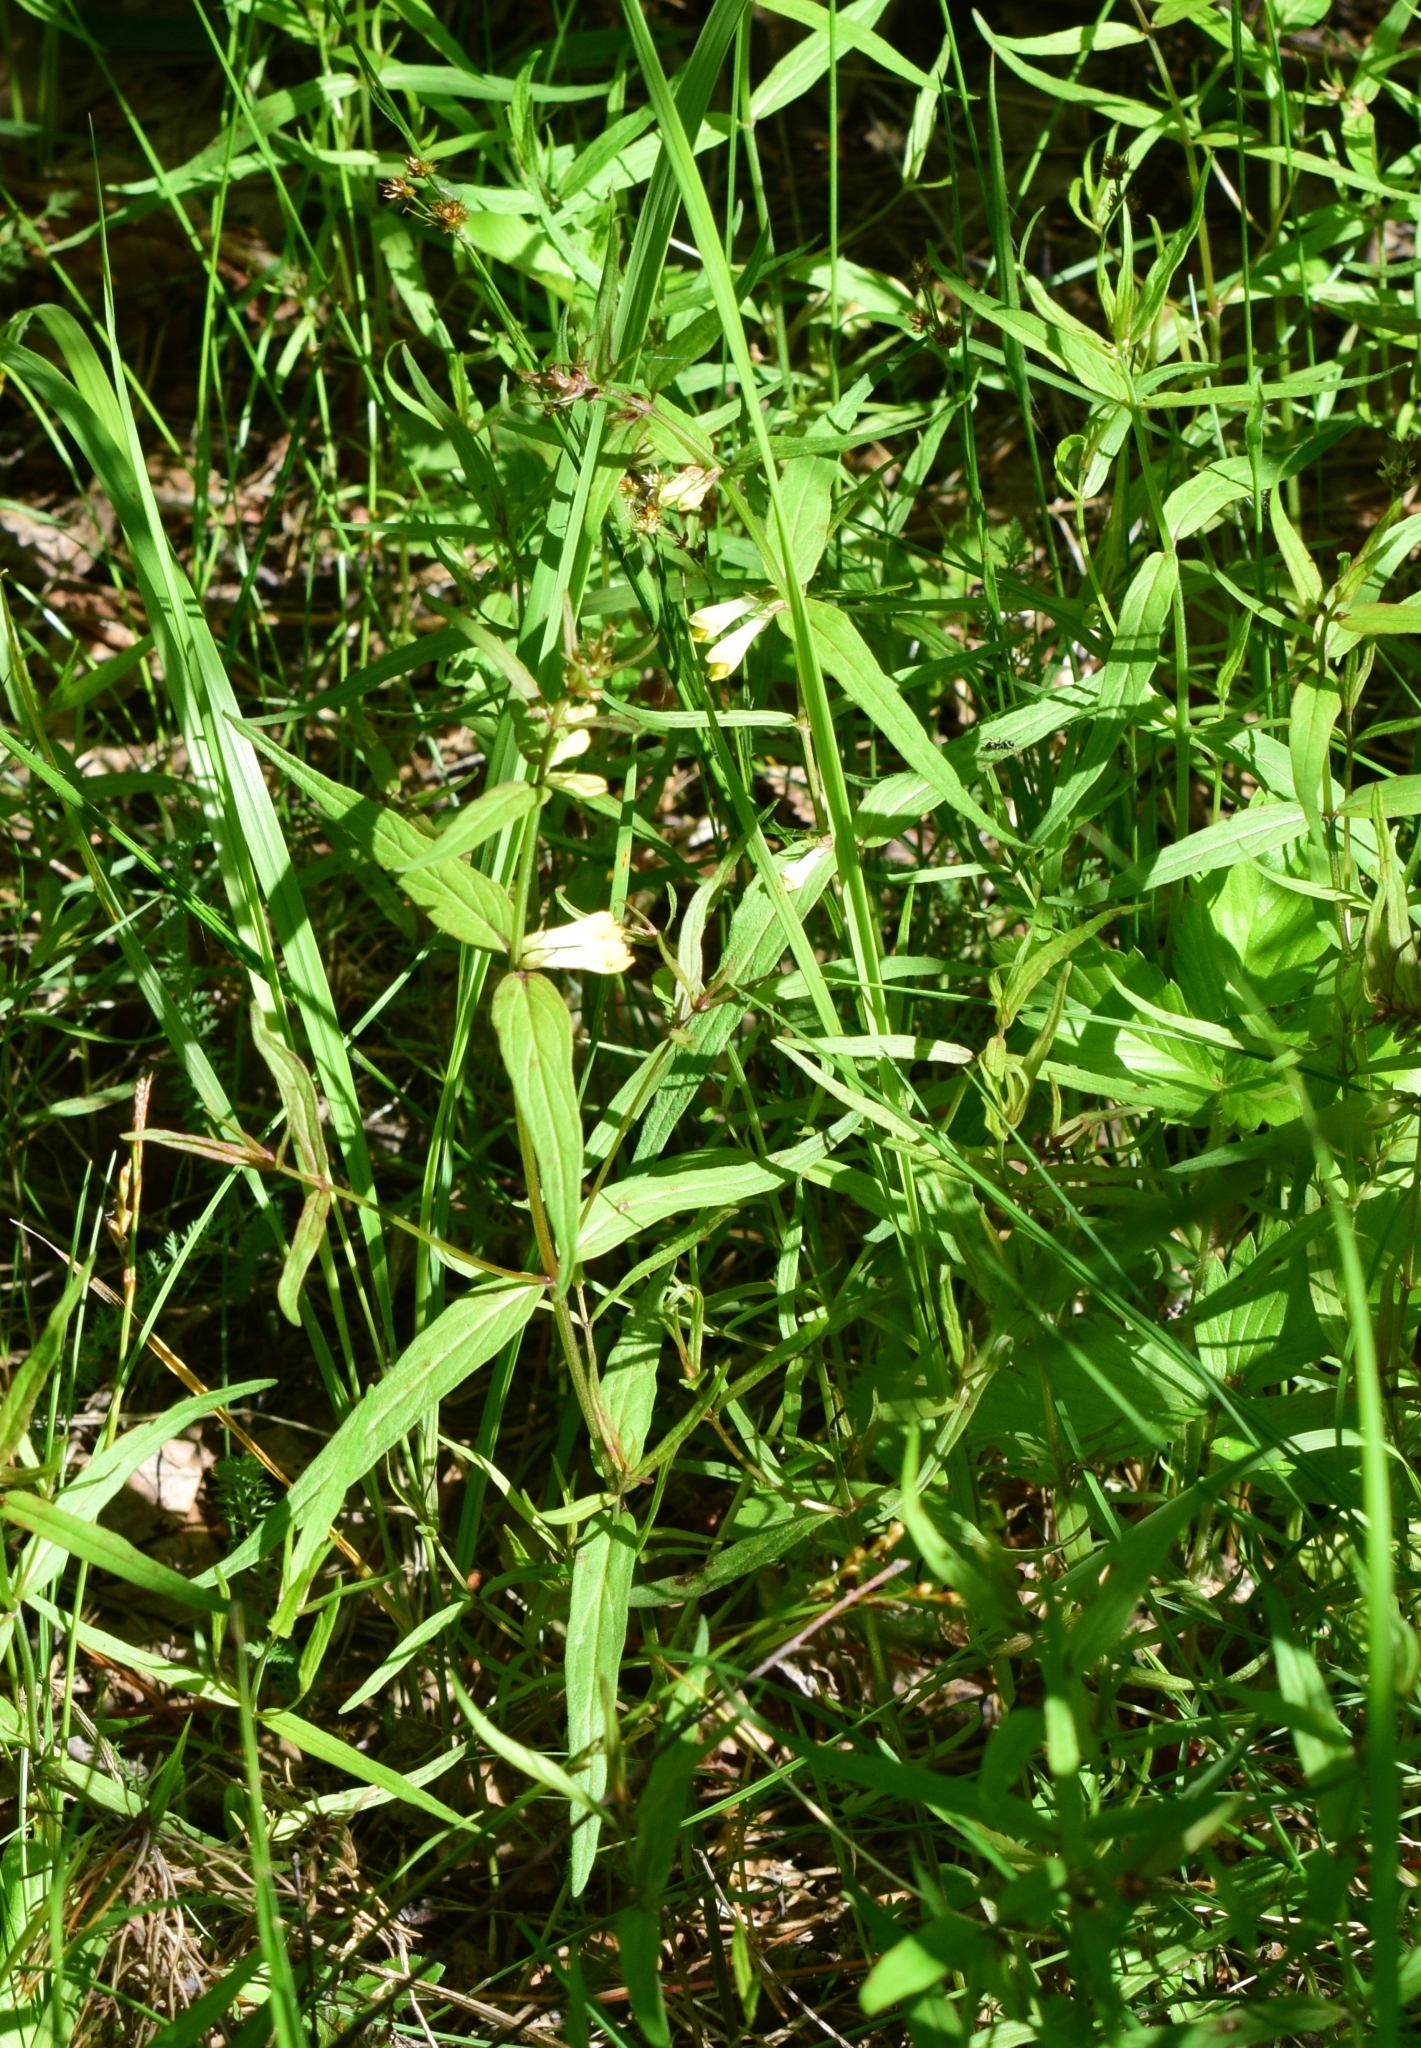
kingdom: Plantae
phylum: Tracheophyta
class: Magnoliopsida
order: Lamiales
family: Orobanchaceae
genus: Melampyrum
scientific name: Melampyrum pratense
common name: Common cow-wheat
